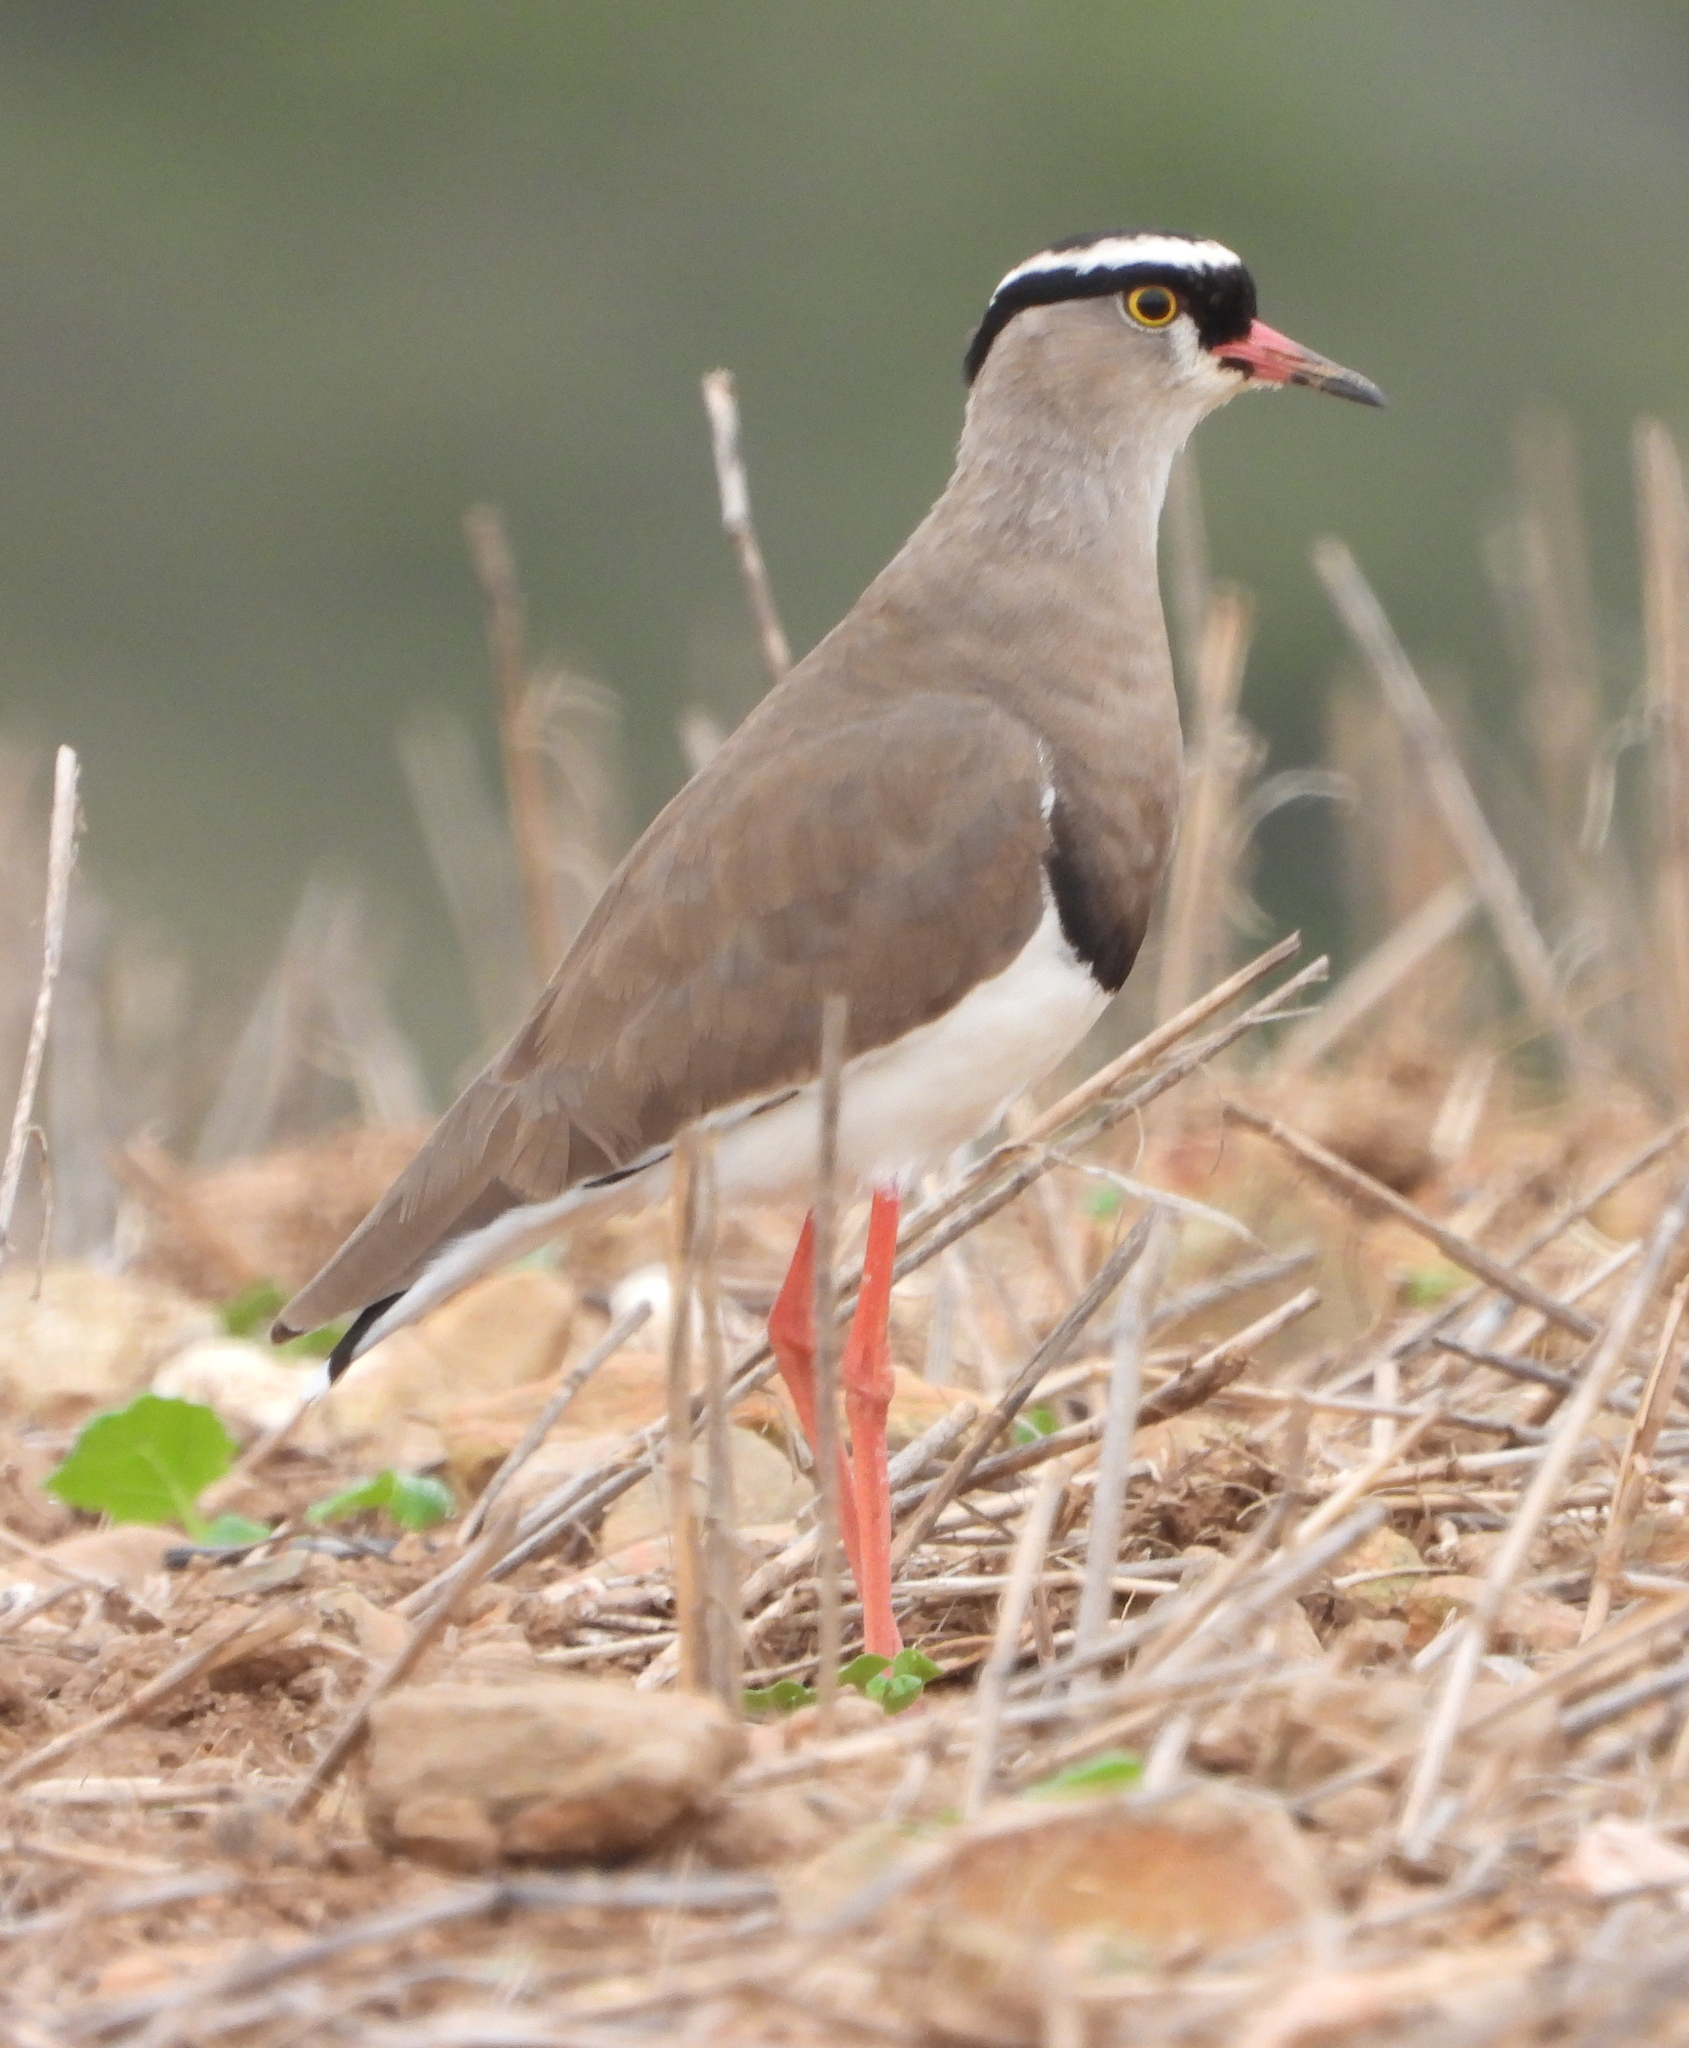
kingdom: Animalia
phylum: Chordata
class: Aves
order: Charadriiformes
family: Charadriidae
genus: Vanellus
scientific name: Vanellus coronatus
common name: Crowned lapwing
